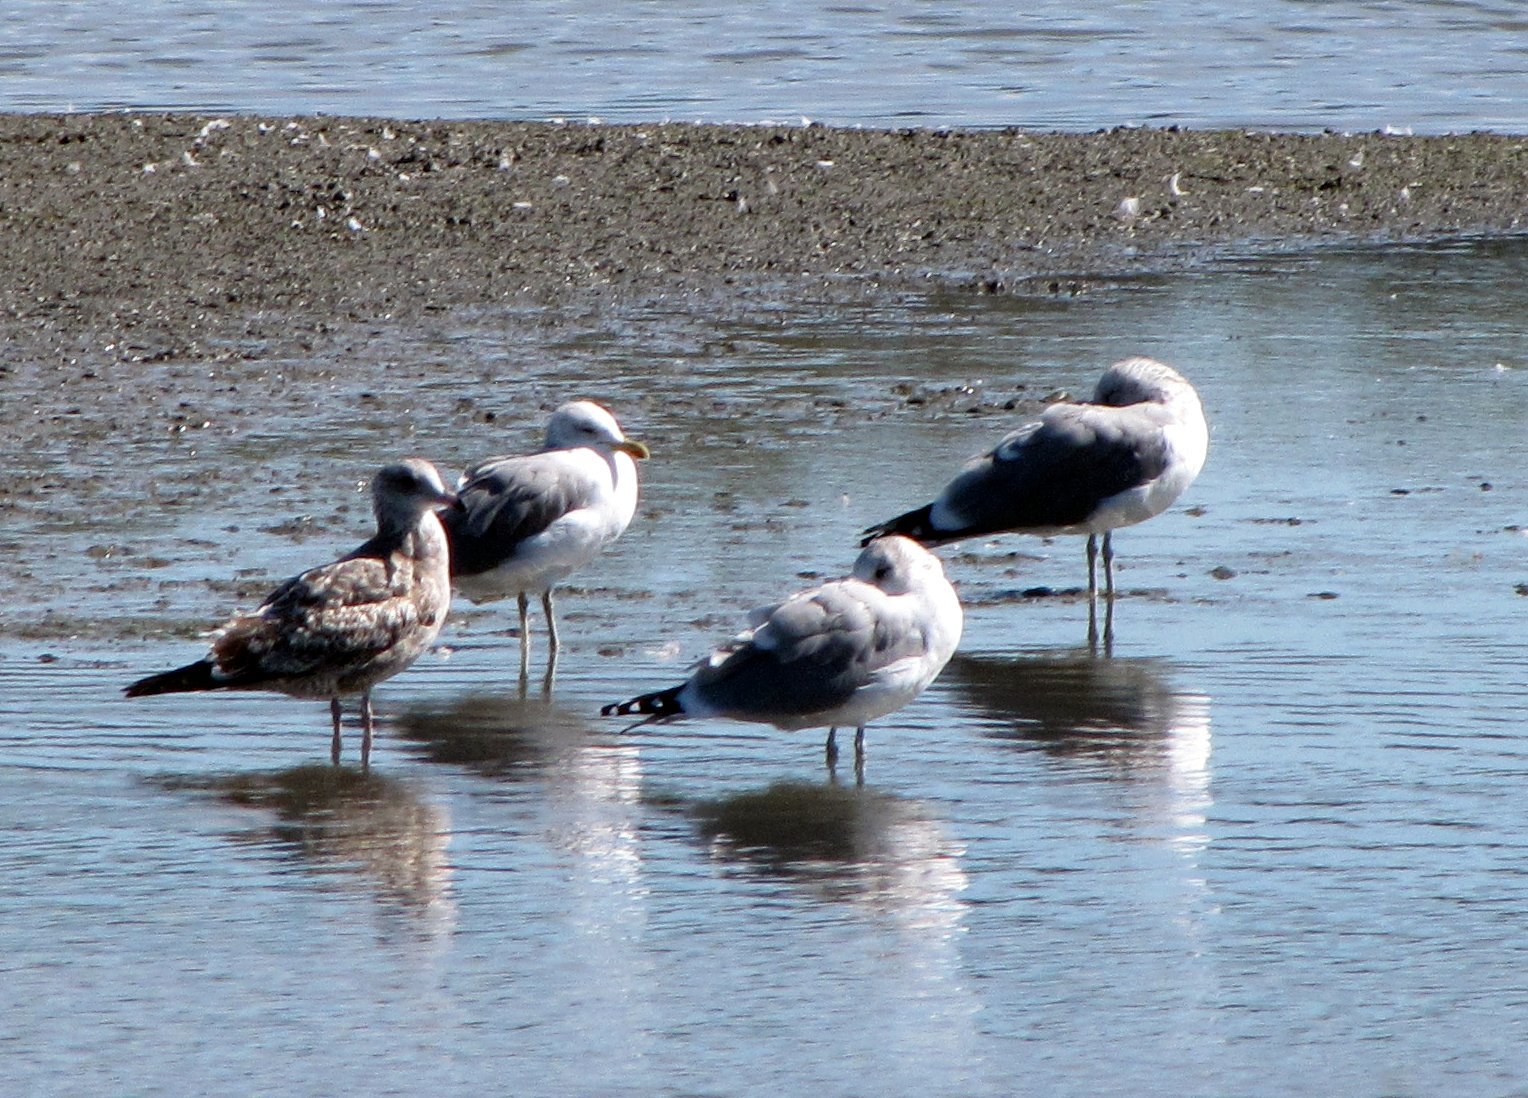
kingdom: Animalia
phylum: Chordata
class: Aves
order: Charadriiformes
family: Laridae
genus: Larus
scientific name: Larus californicus
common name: California gull
